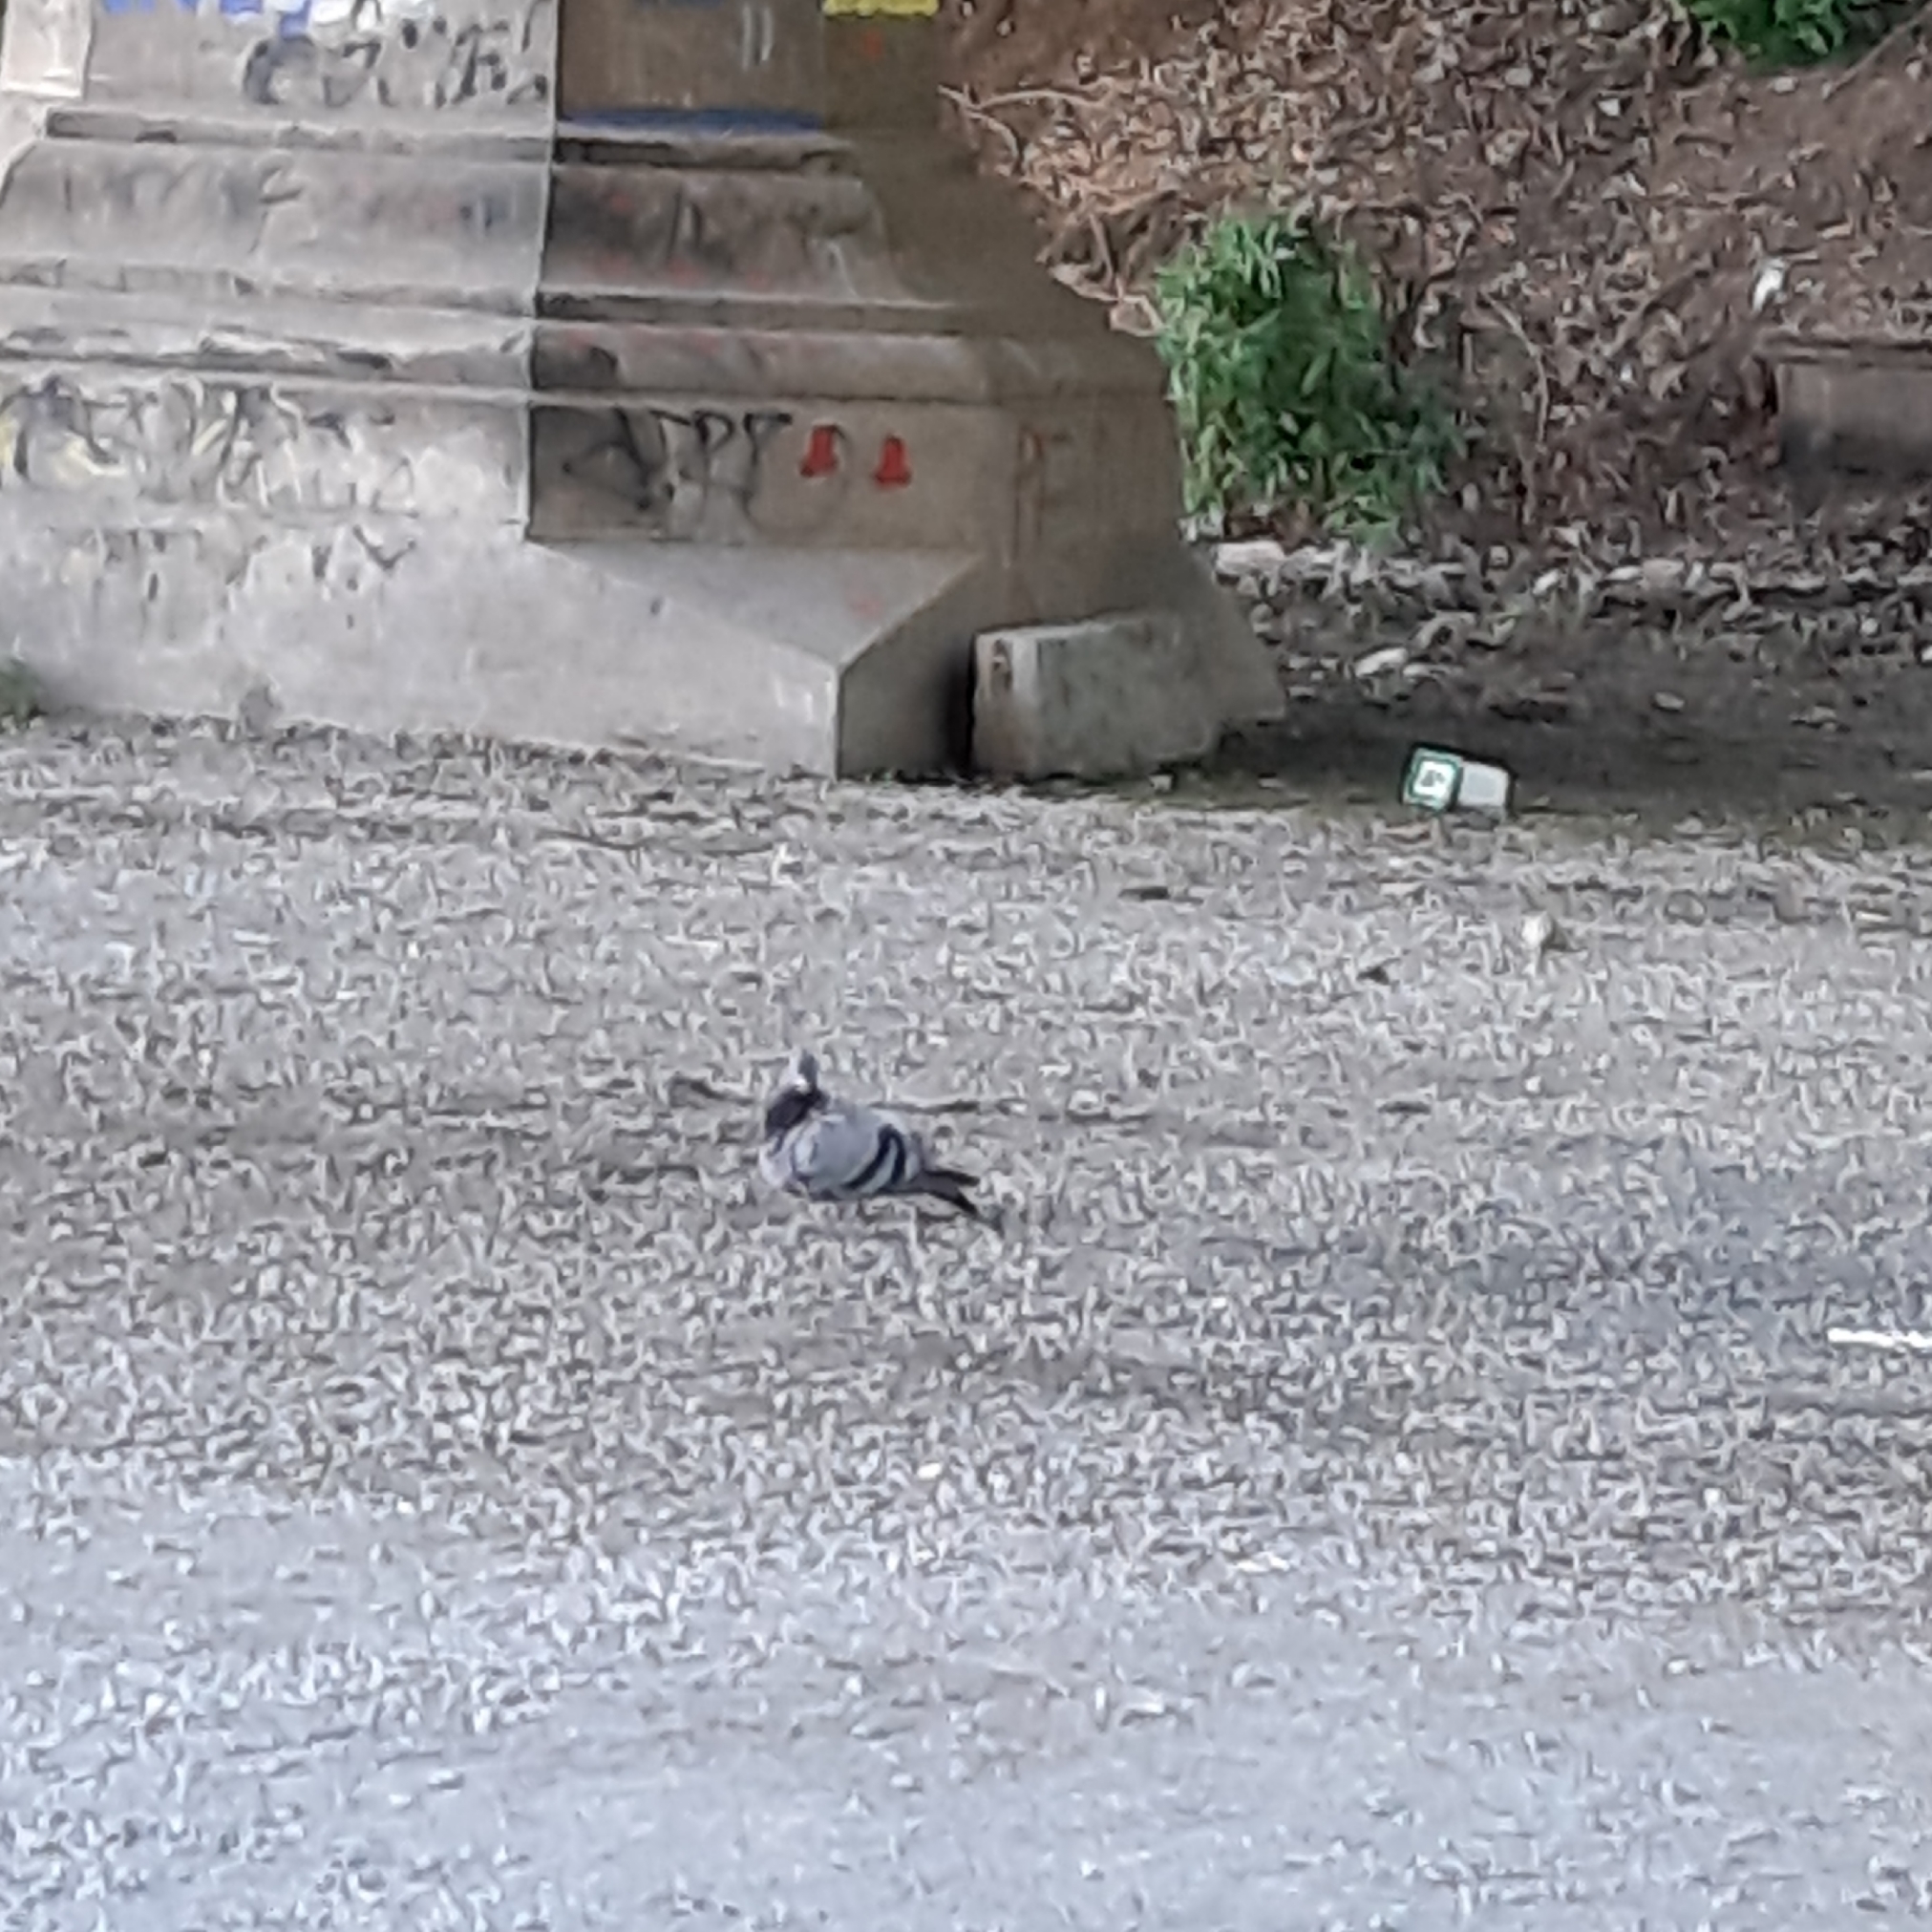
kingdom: Animalia
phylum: Chordata
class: Aves
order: Columbiformes
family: Columbidae
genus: Columba
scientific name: Columba livia
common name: Rock pigeon
